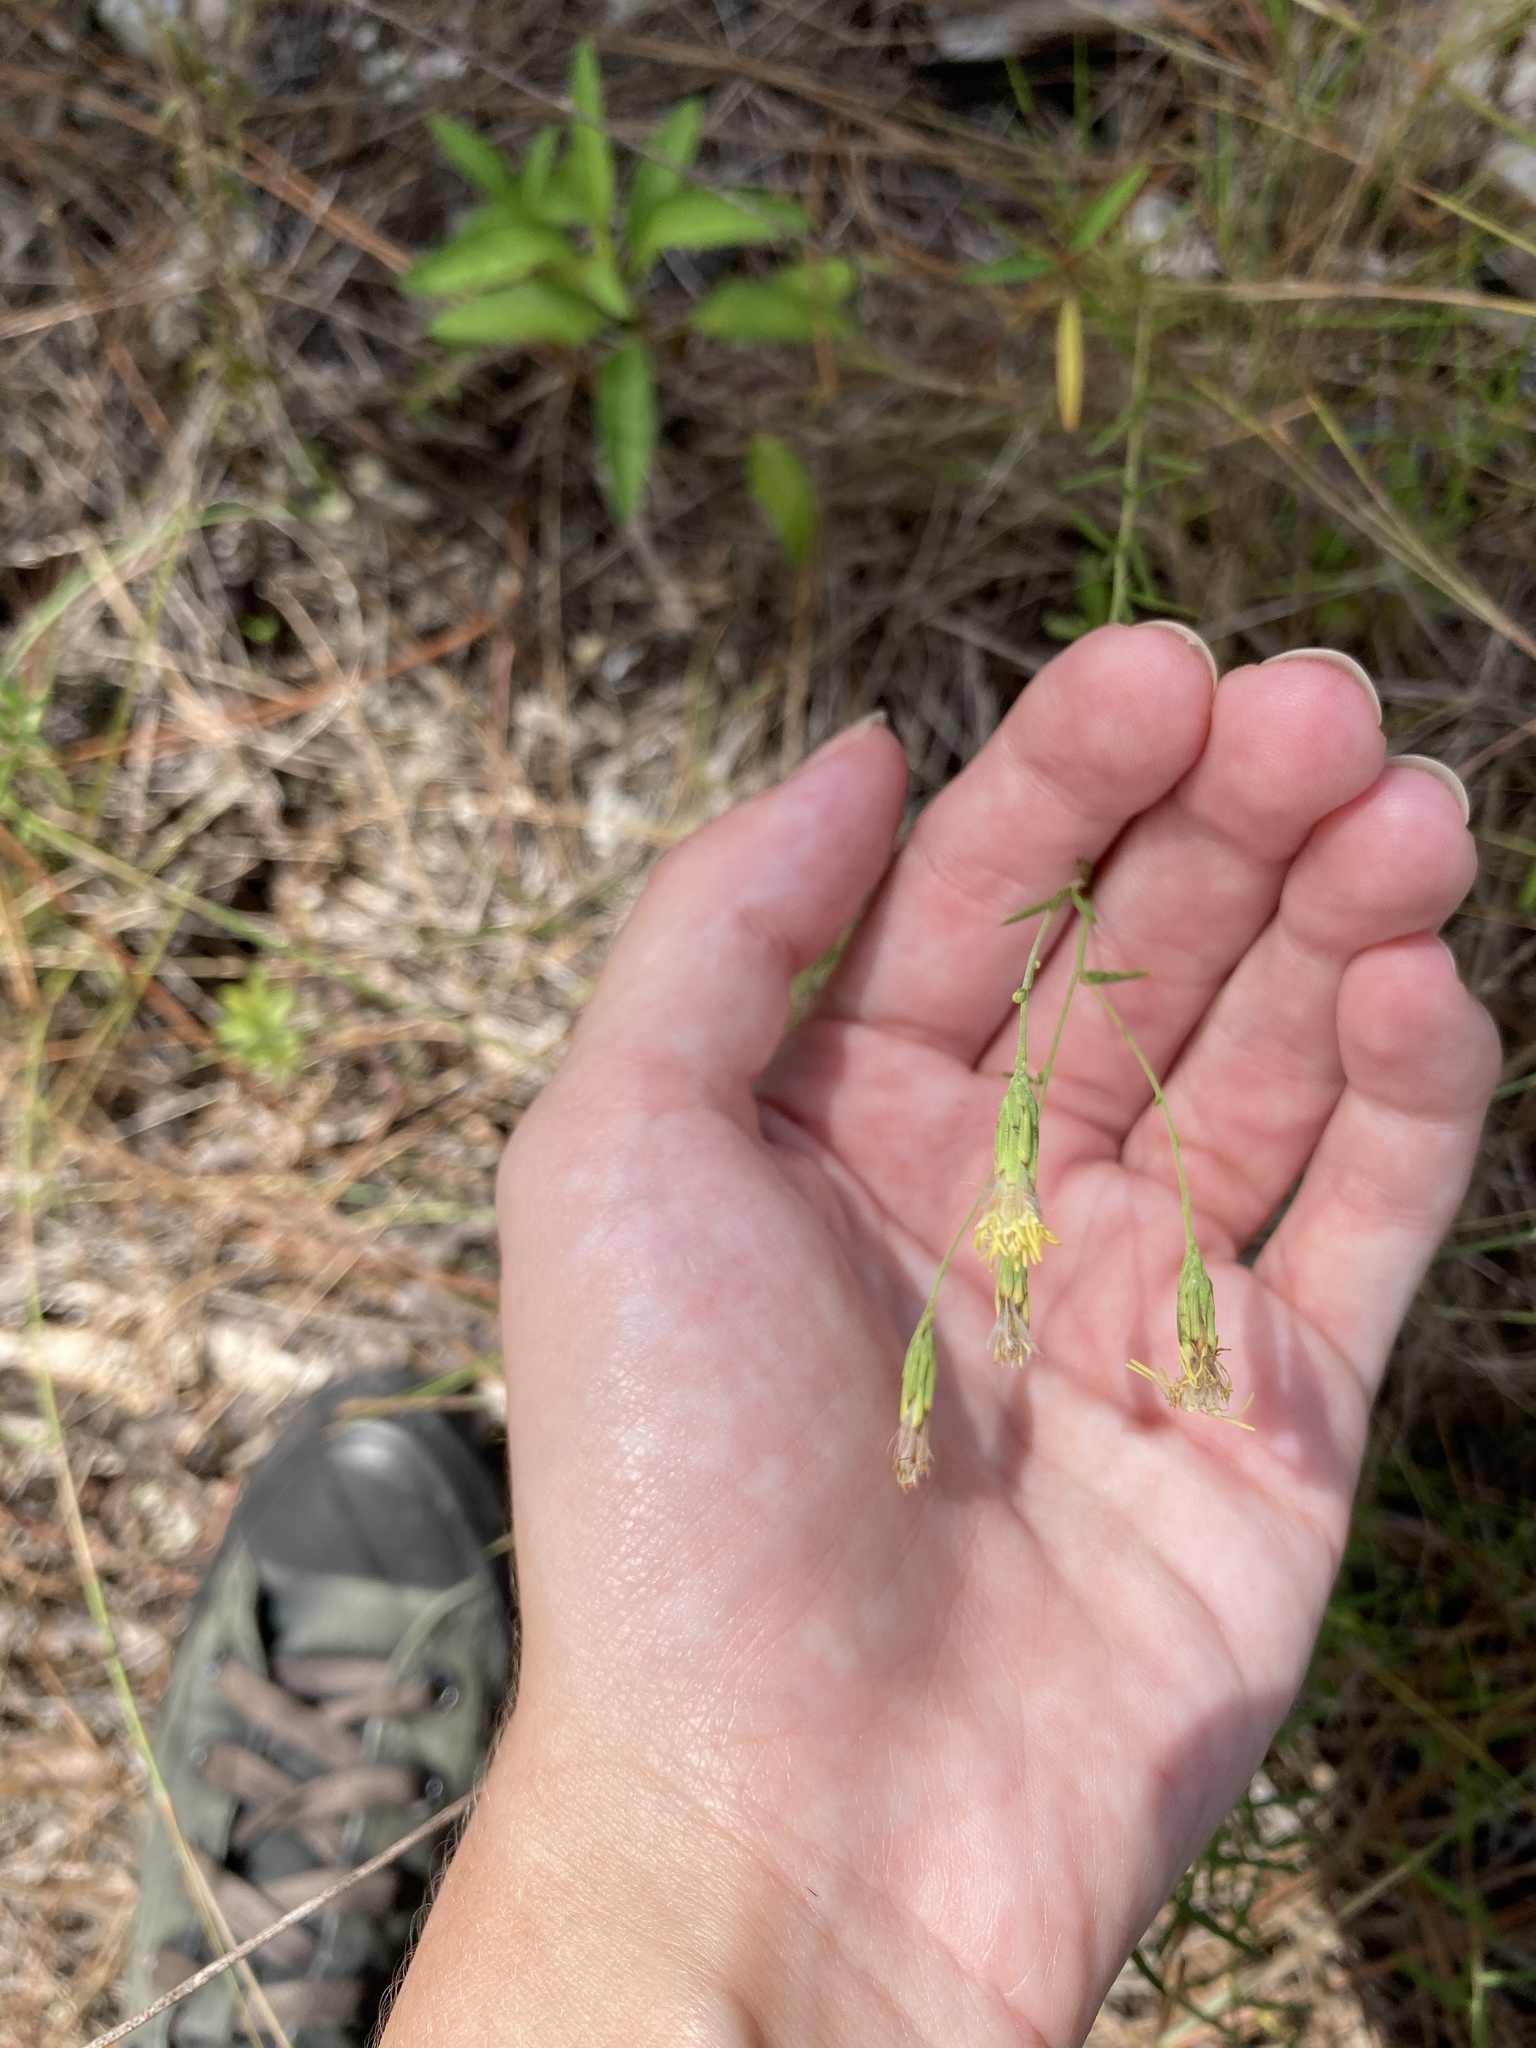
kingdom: Plantae
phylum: Tracheophyta
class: Magnoliopsida
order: Asterales
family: Asteraceae
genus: Brickellia
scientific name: Brickellia mosieri
